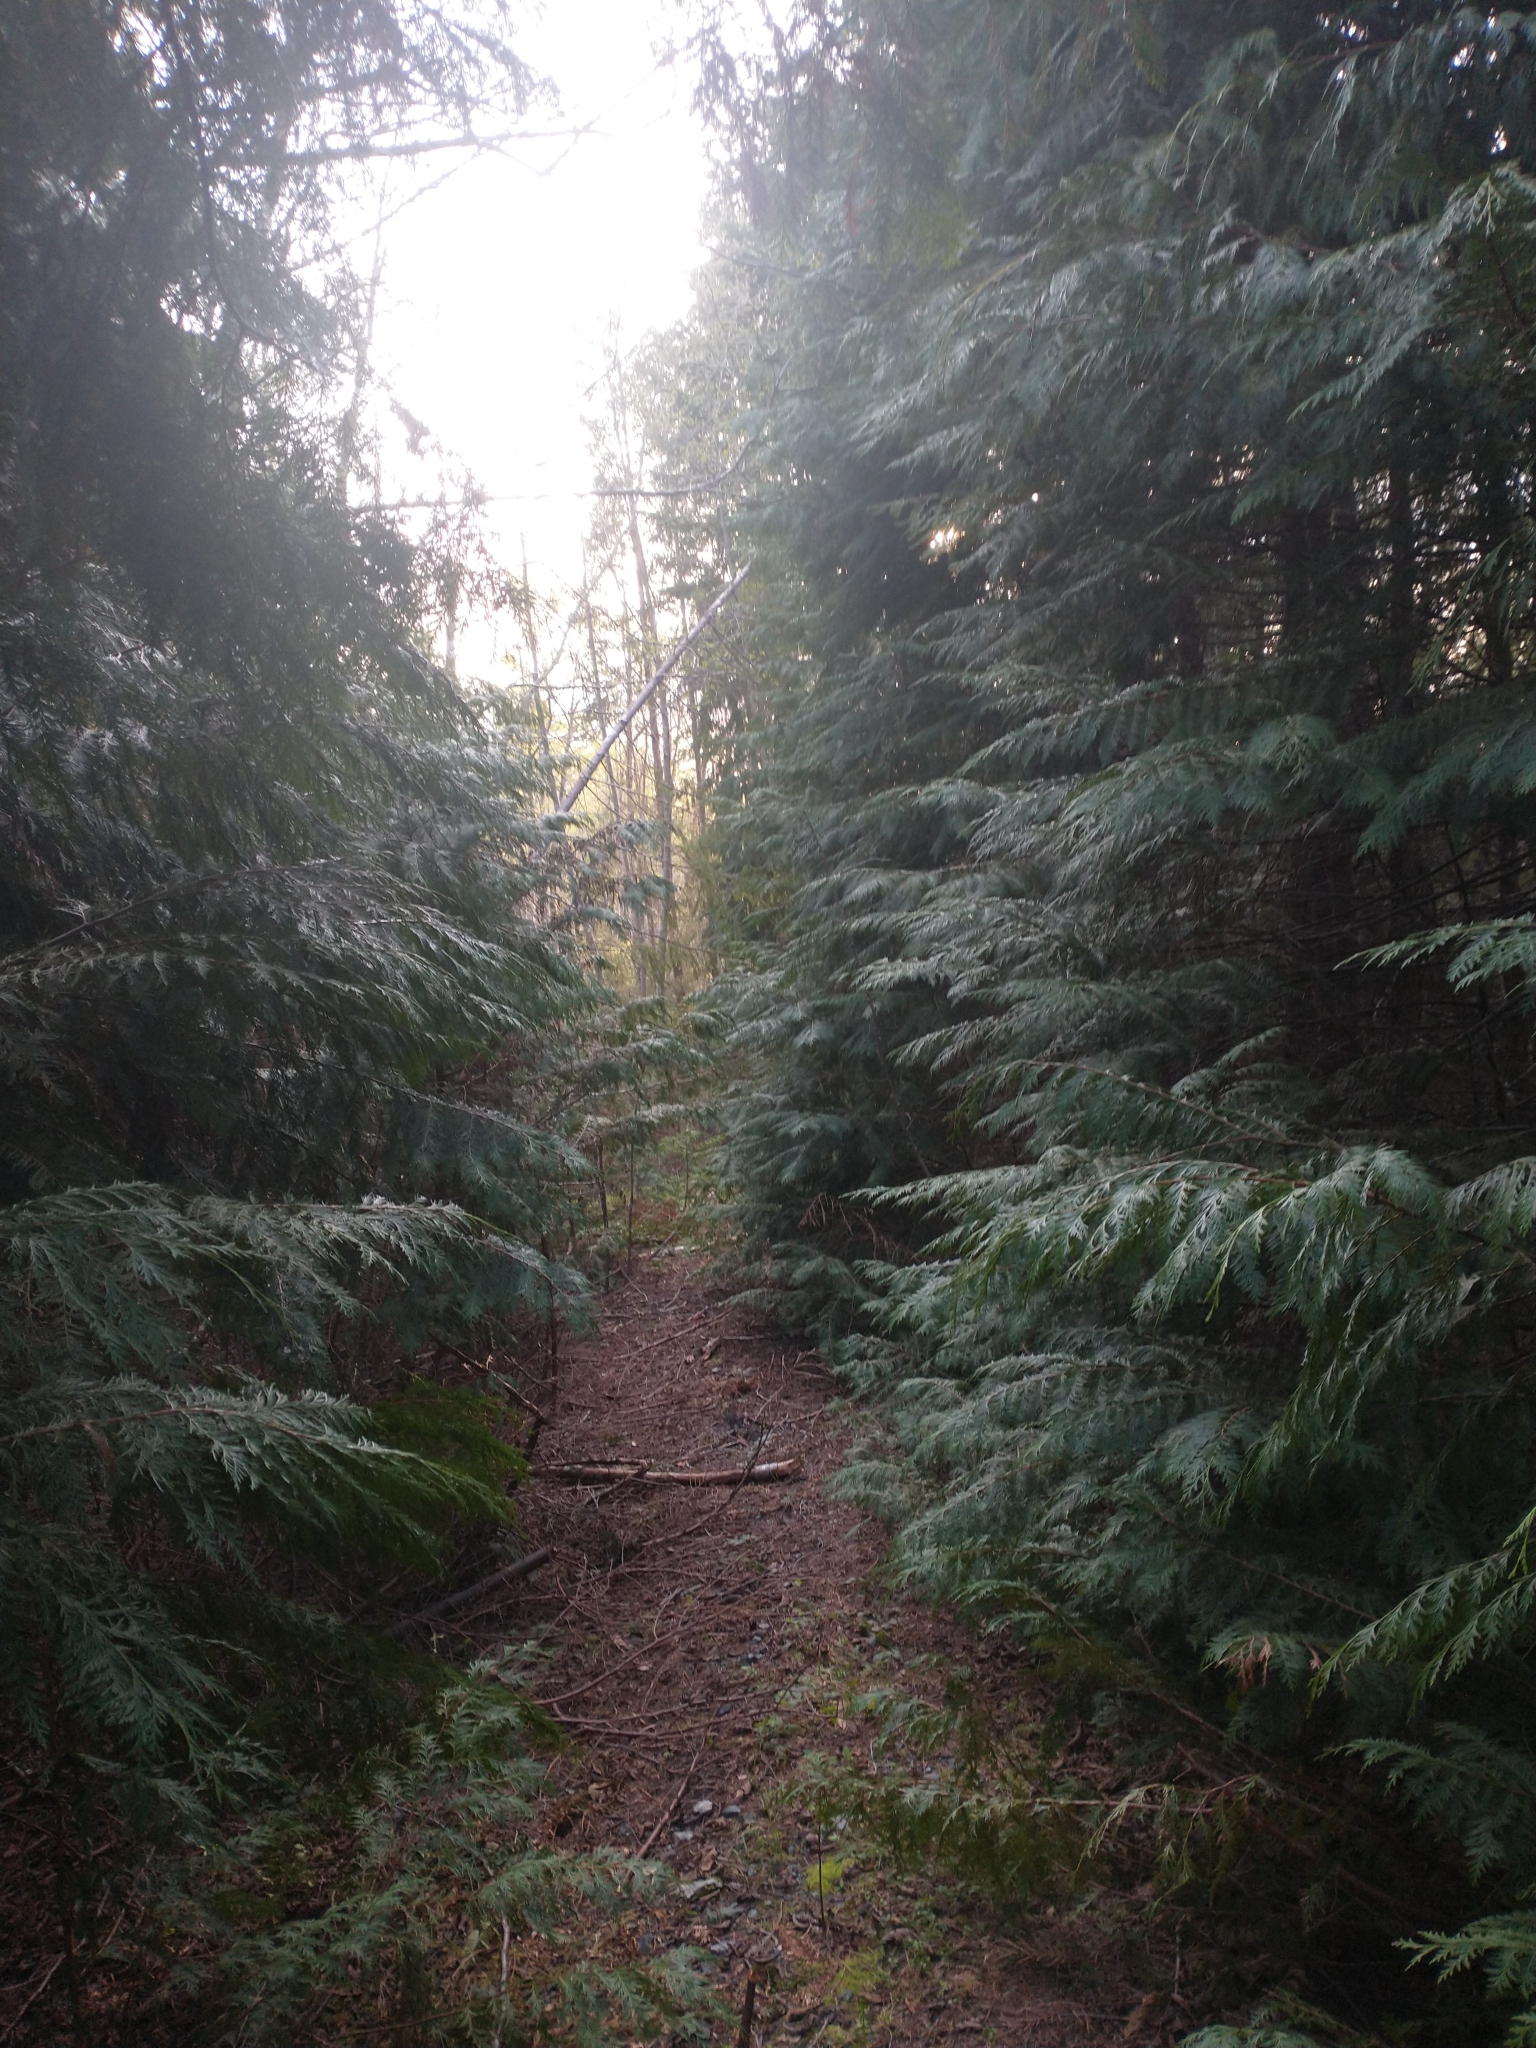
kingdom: Plantae
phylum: Tracheophyta
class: Pinopsida
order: Pinales
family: Cupressaceae
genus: Chamaecyparis
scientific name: Chamaecyparis lawsoniana
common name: Lawson's cypress
